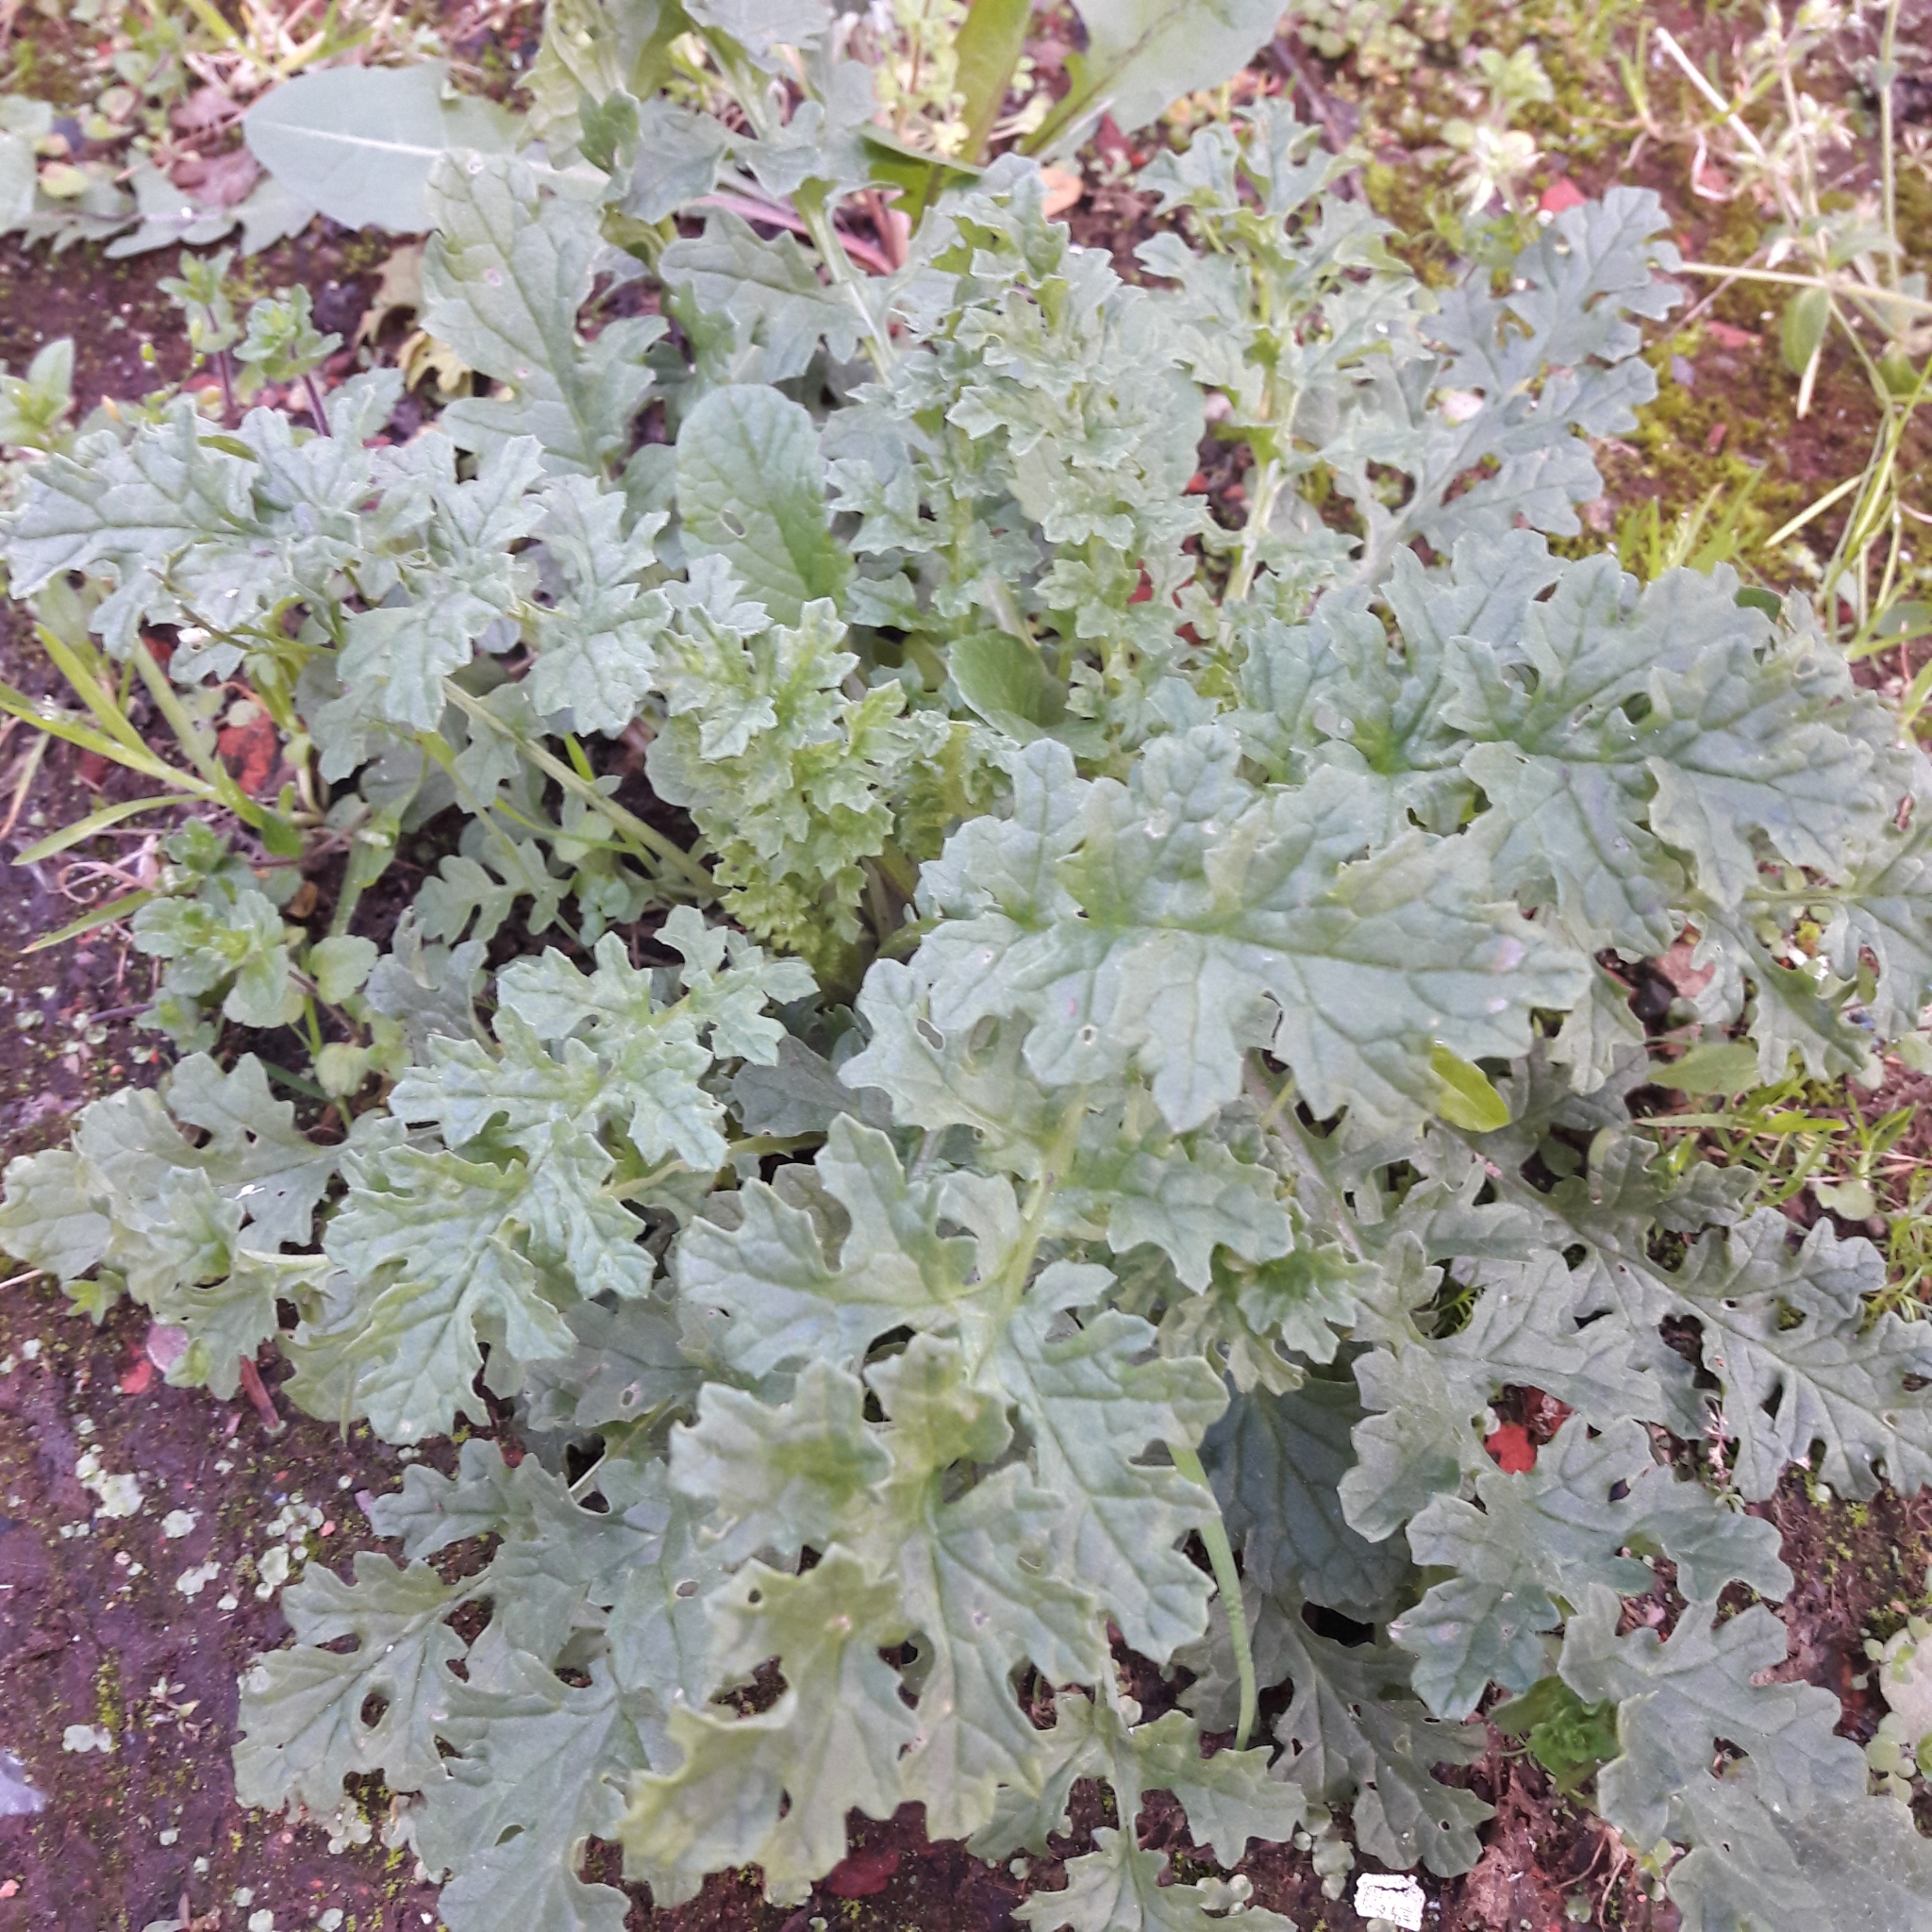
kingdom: Plantae
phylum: Tracheophyta
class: Magnoliopsida
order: Asterales
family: Asteraceae
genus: Jacobaea
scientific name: Jacobaea vulgaris
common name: Stinking willie
